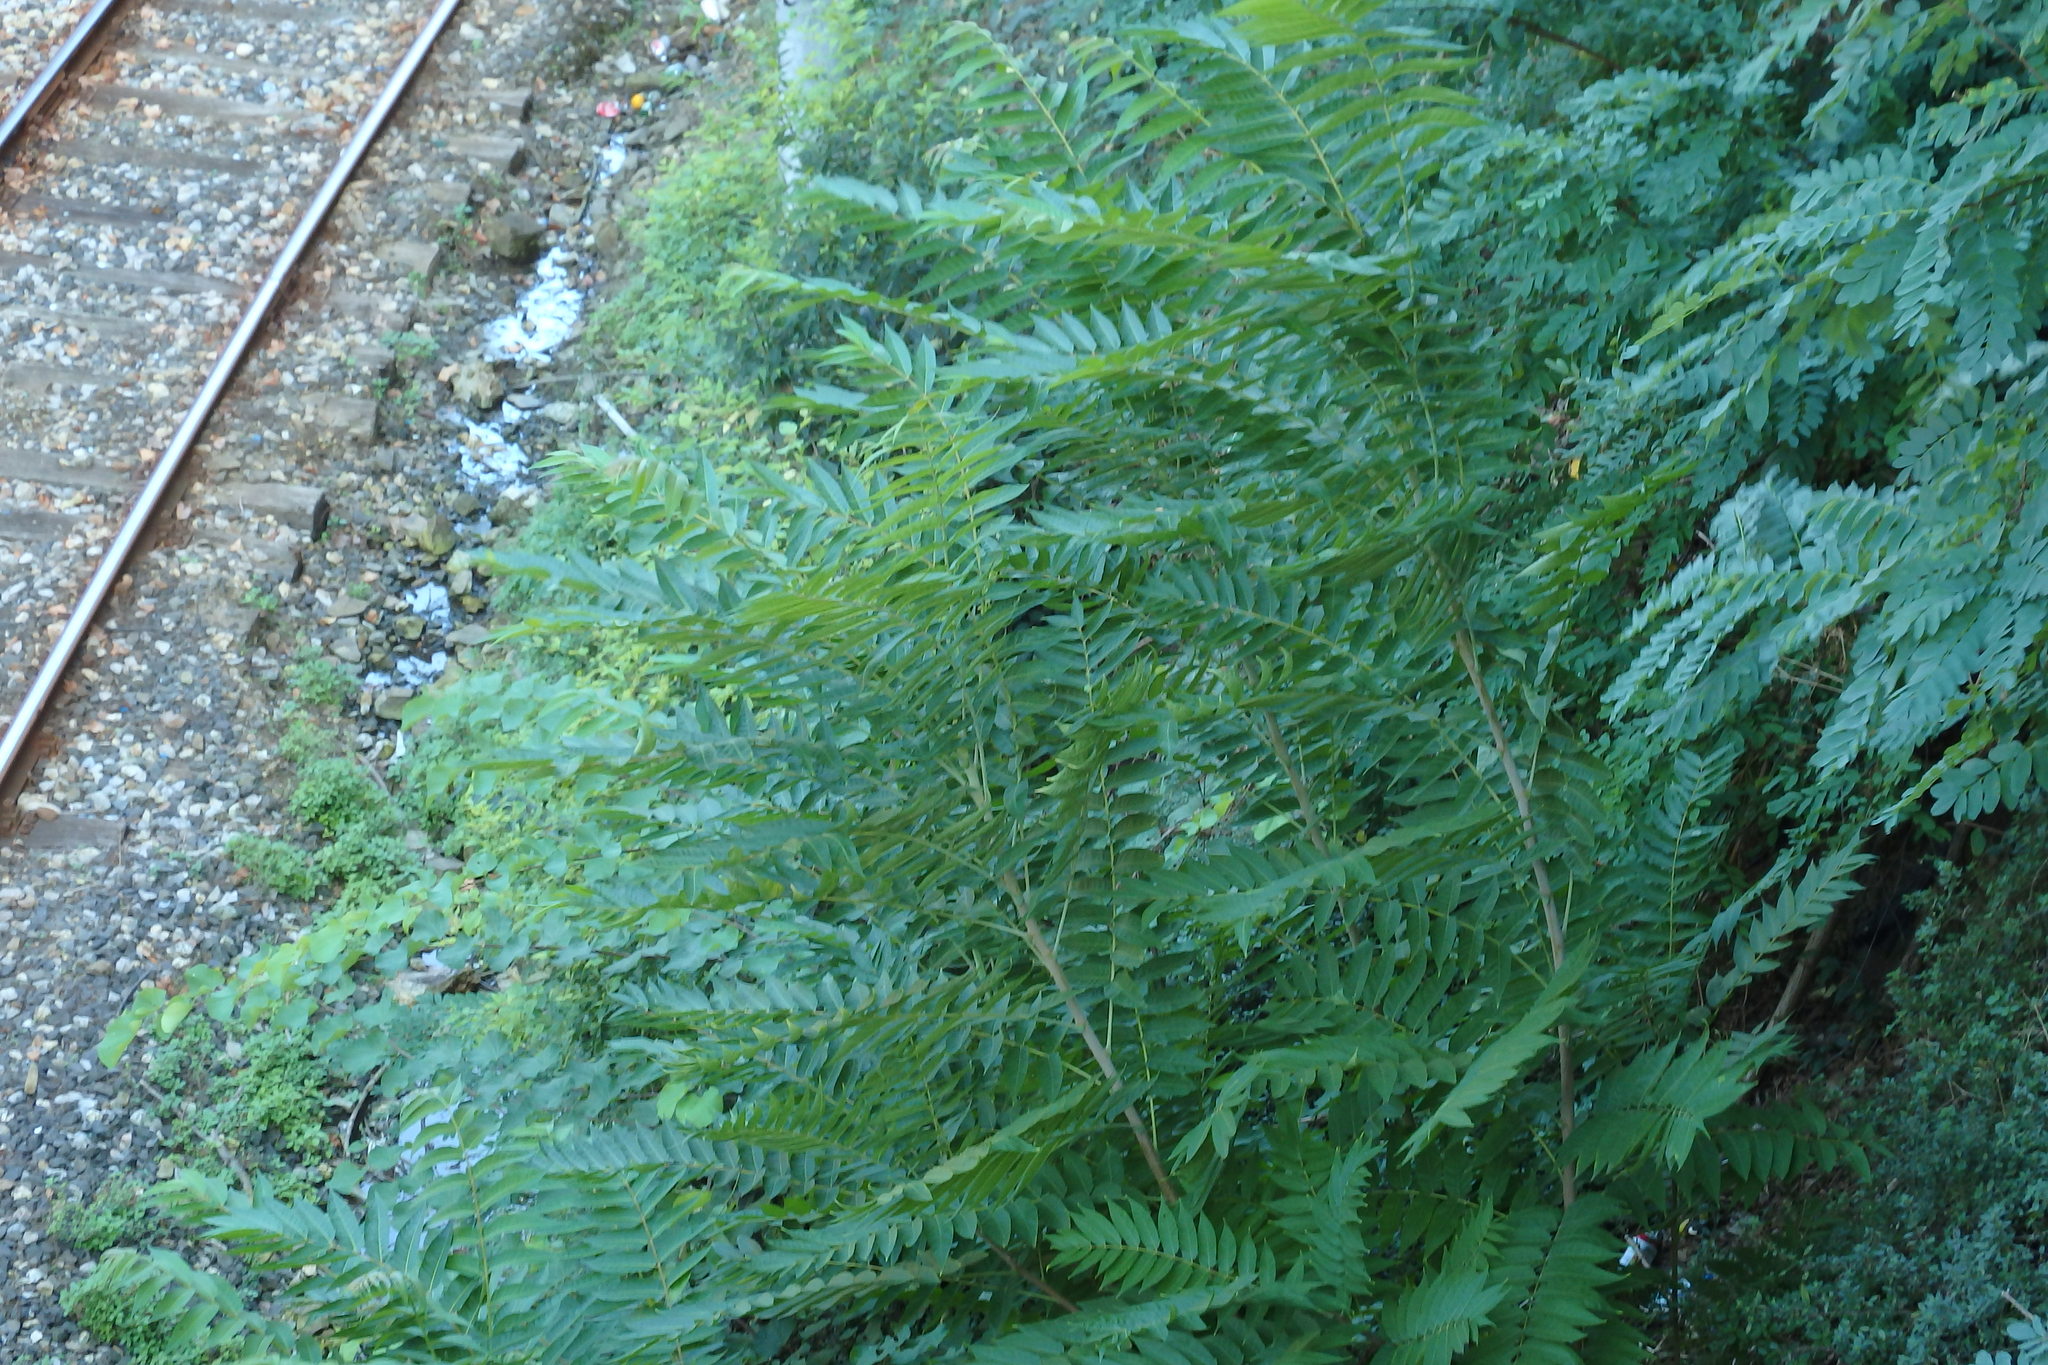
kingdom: Plantae
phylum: Tracheophyta
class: Magnoliopsida
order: Sapindales
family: Simaroubaceae
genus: Ailanthus
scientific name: Ailanthus altissima
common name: Tree-of-heaven
